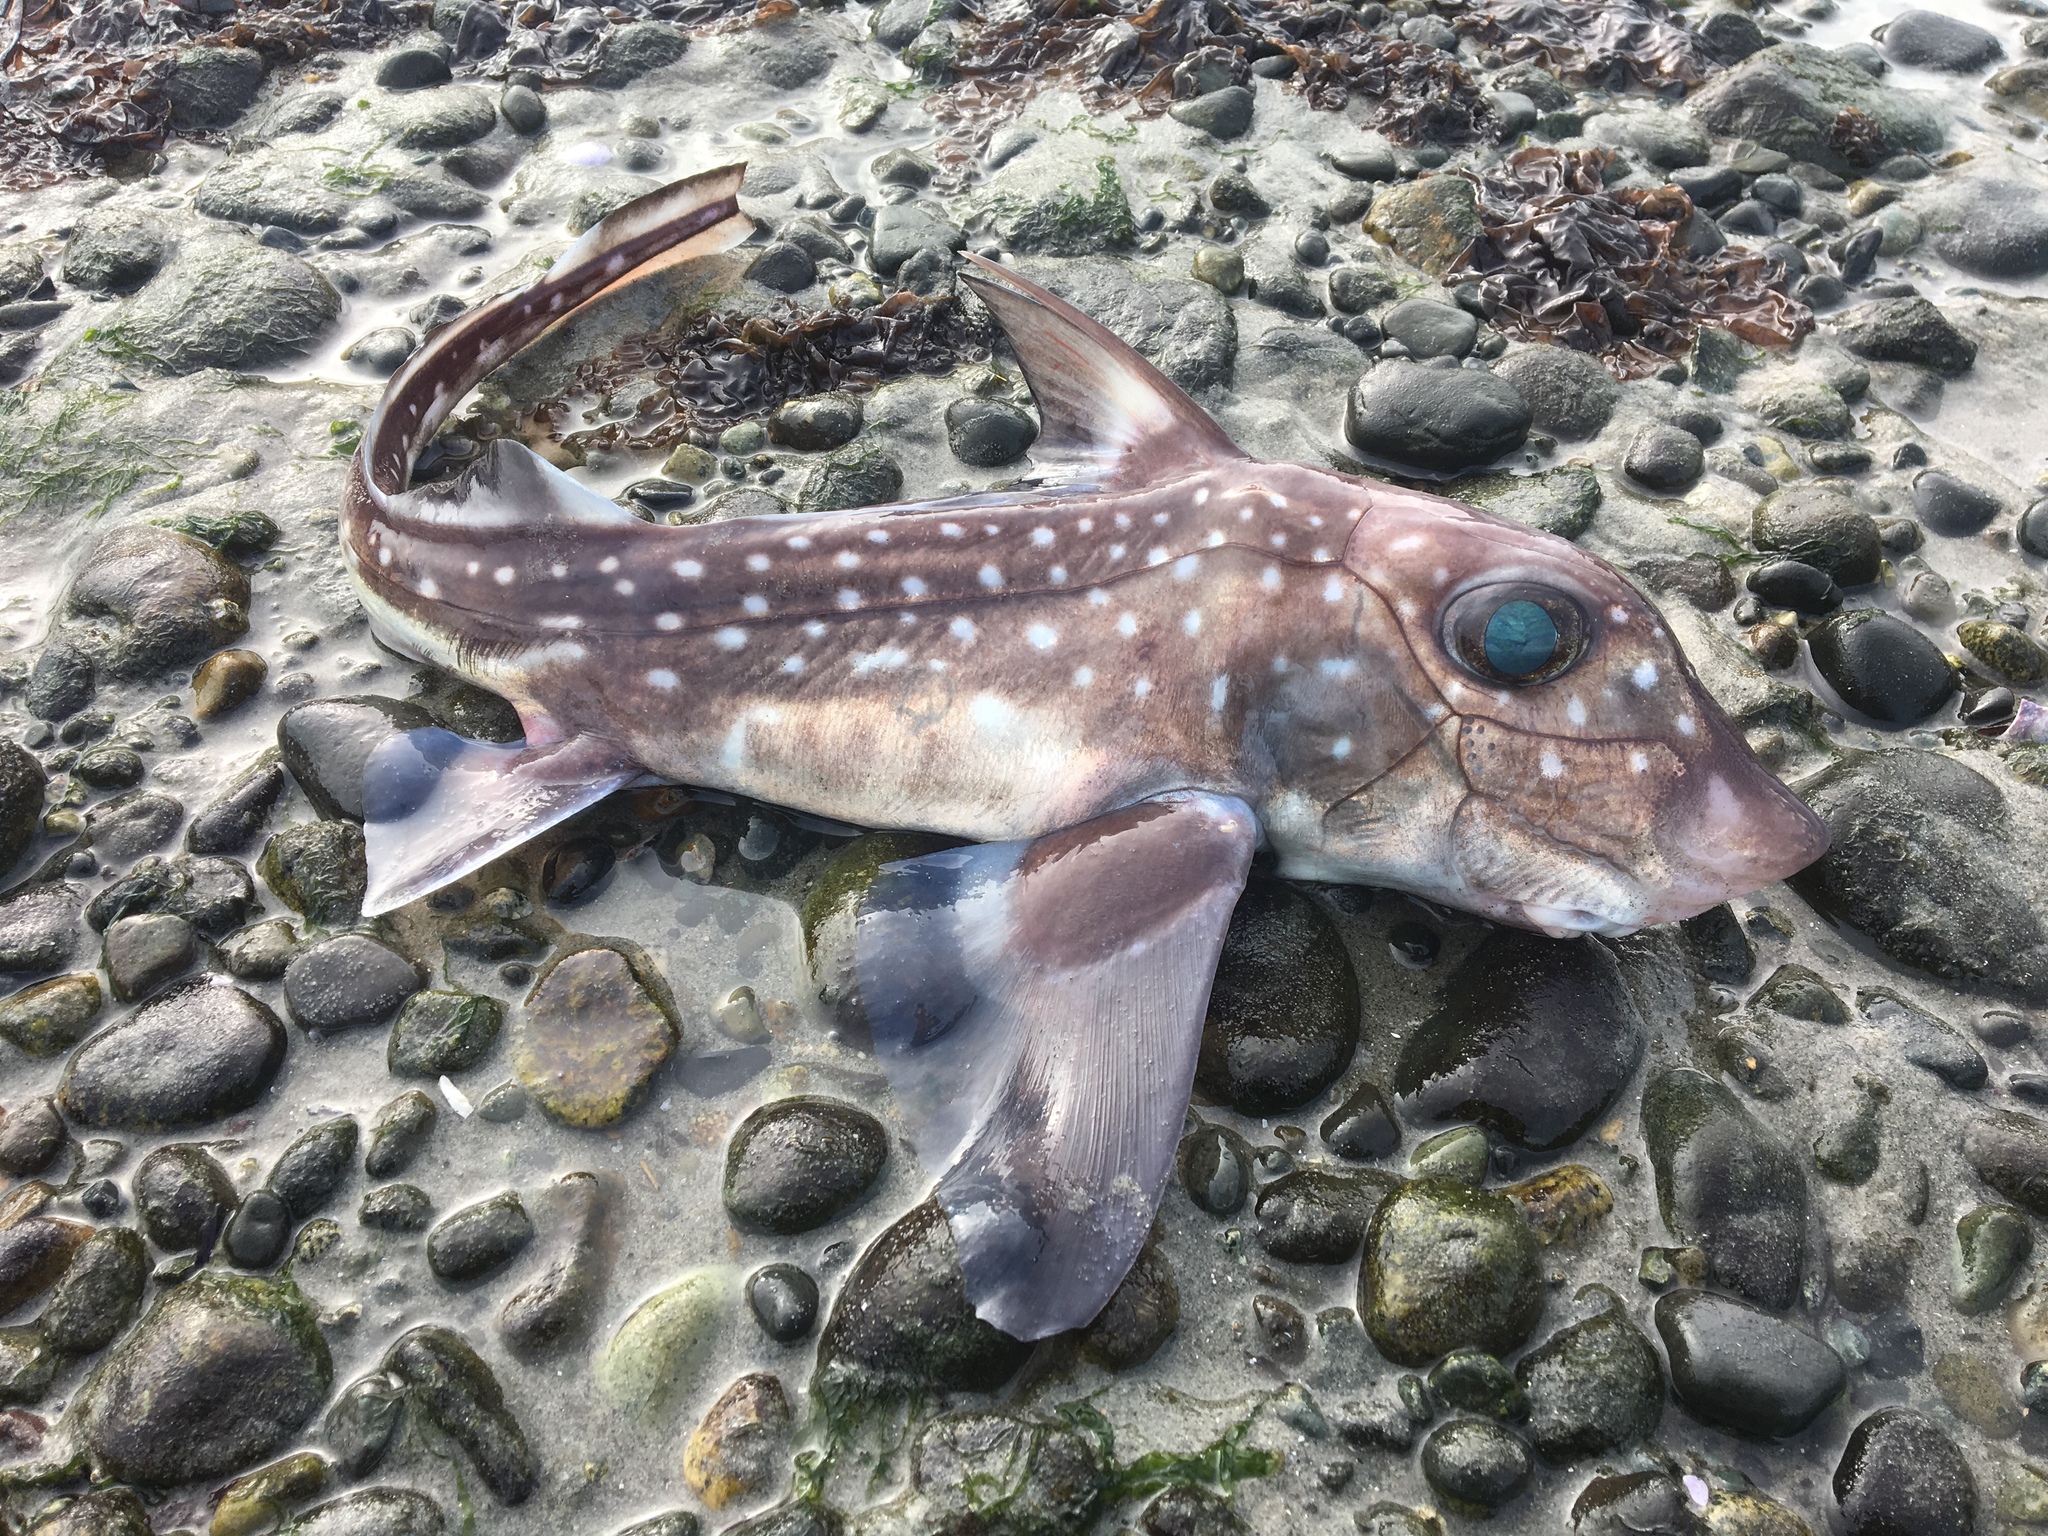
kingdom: Animalia
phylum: Chordata
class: Holocephali
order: Chimaeriformes
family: Chimaeridae
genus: Hydrolagus
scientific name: Hydrolagus colliei
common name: Ratfish
